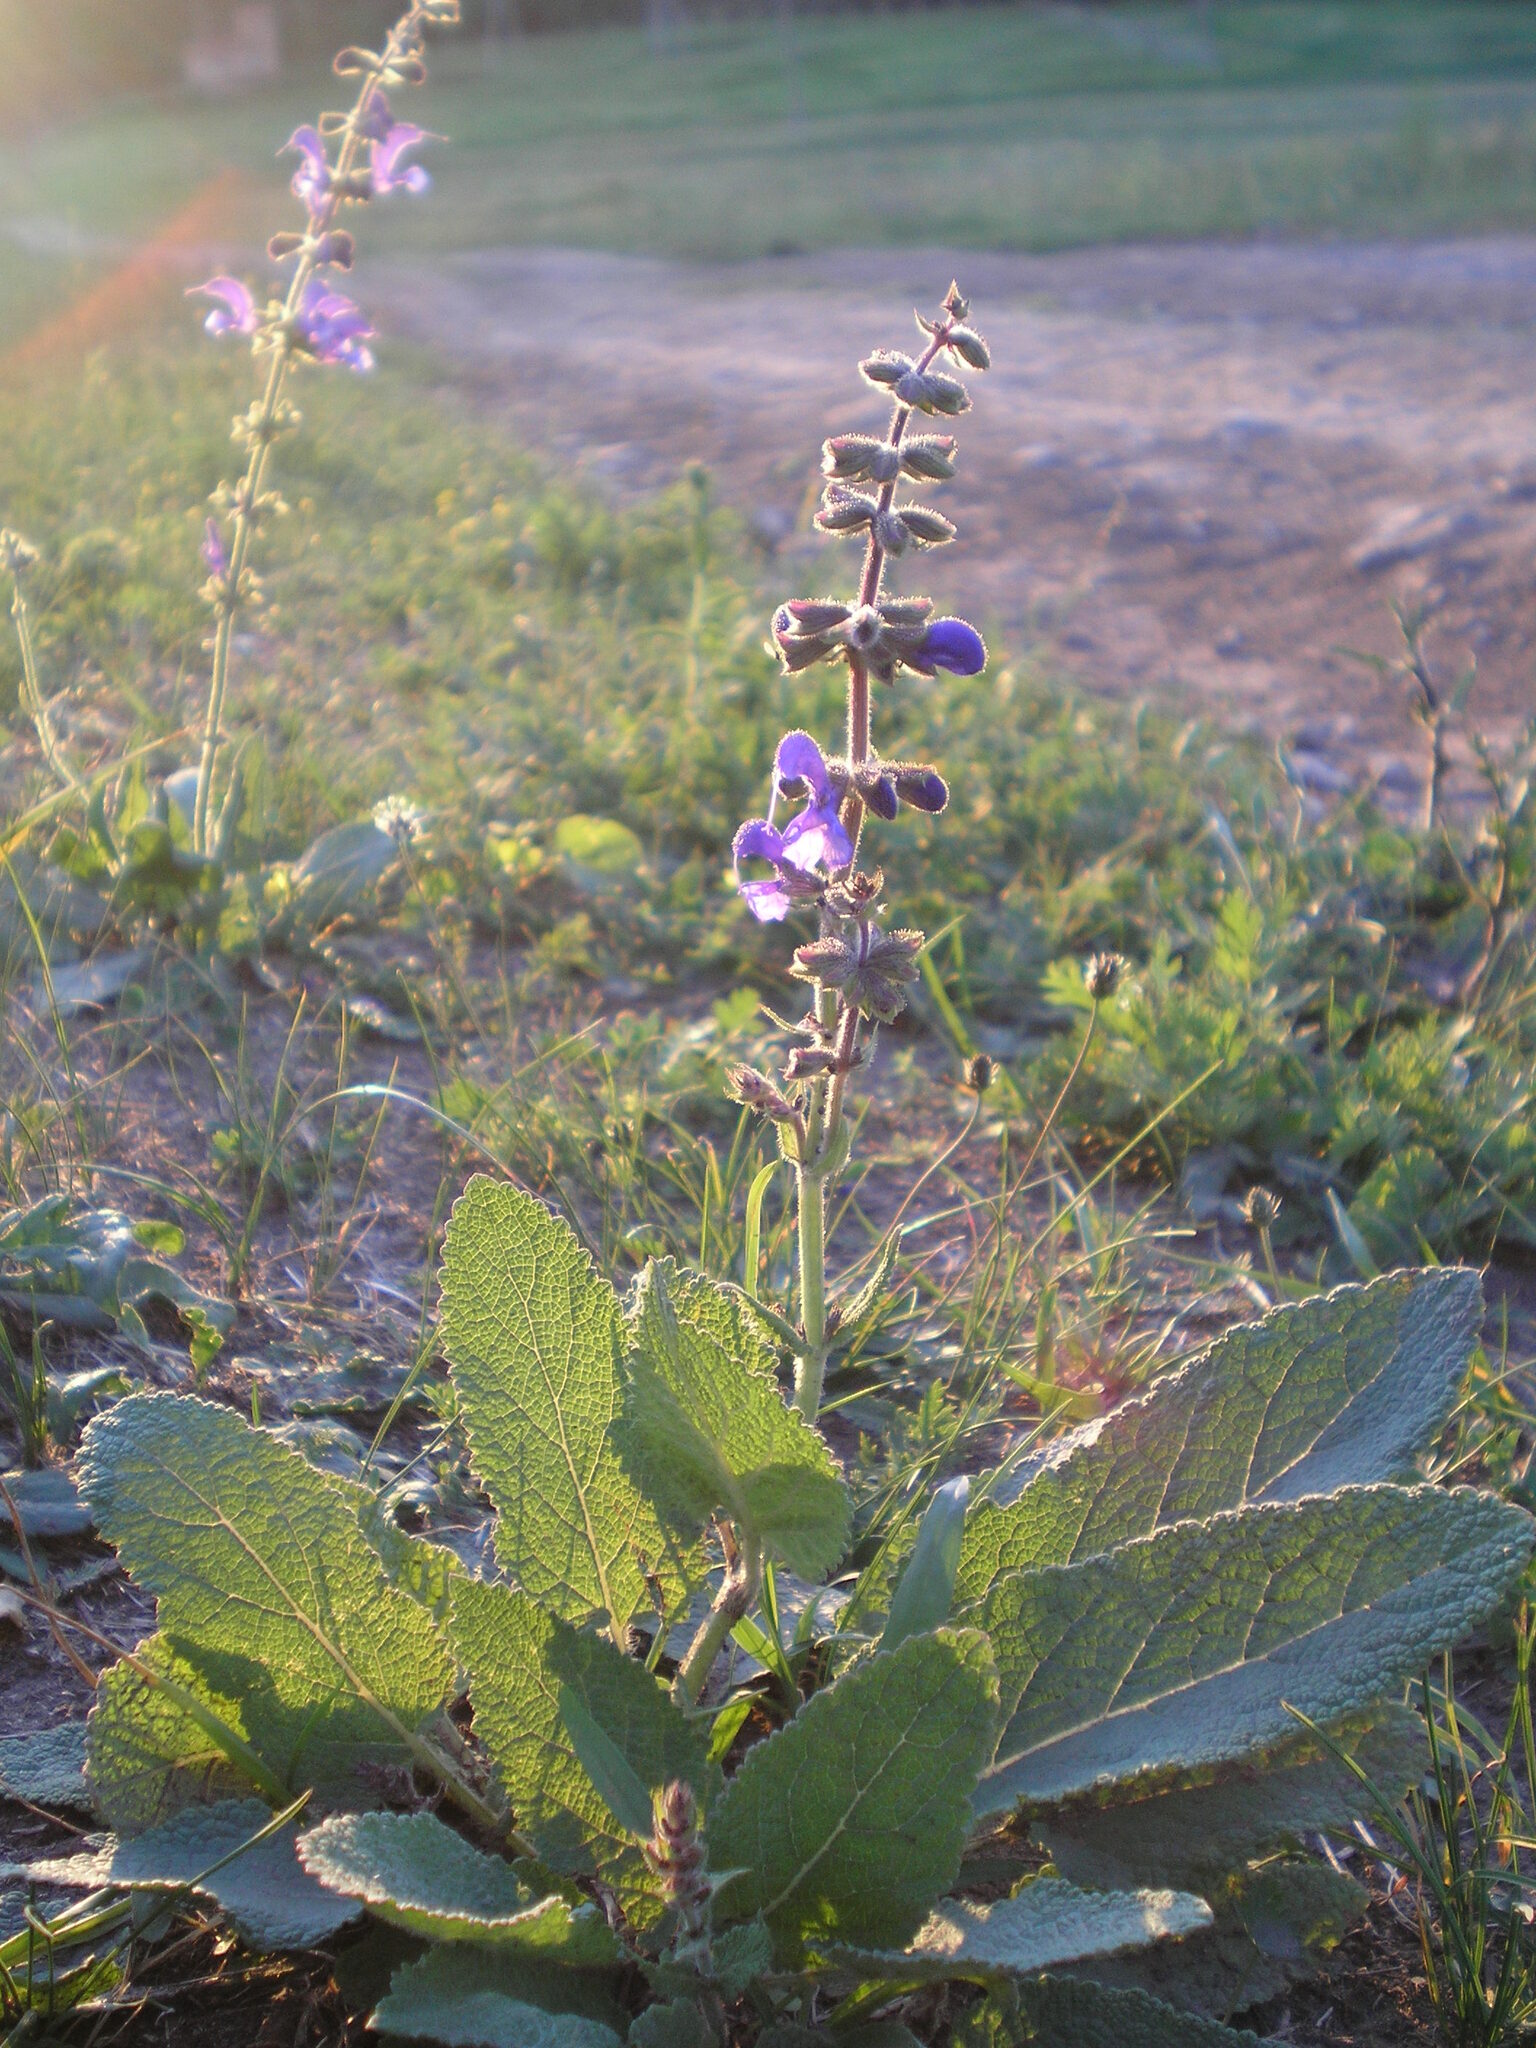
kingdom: Plantae
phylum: Tracheophyta
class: Magnoliopsida
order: Lamiales
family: Lamiaceae
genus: Salvia
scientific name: Salvia pratensis
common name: Meadow sage
